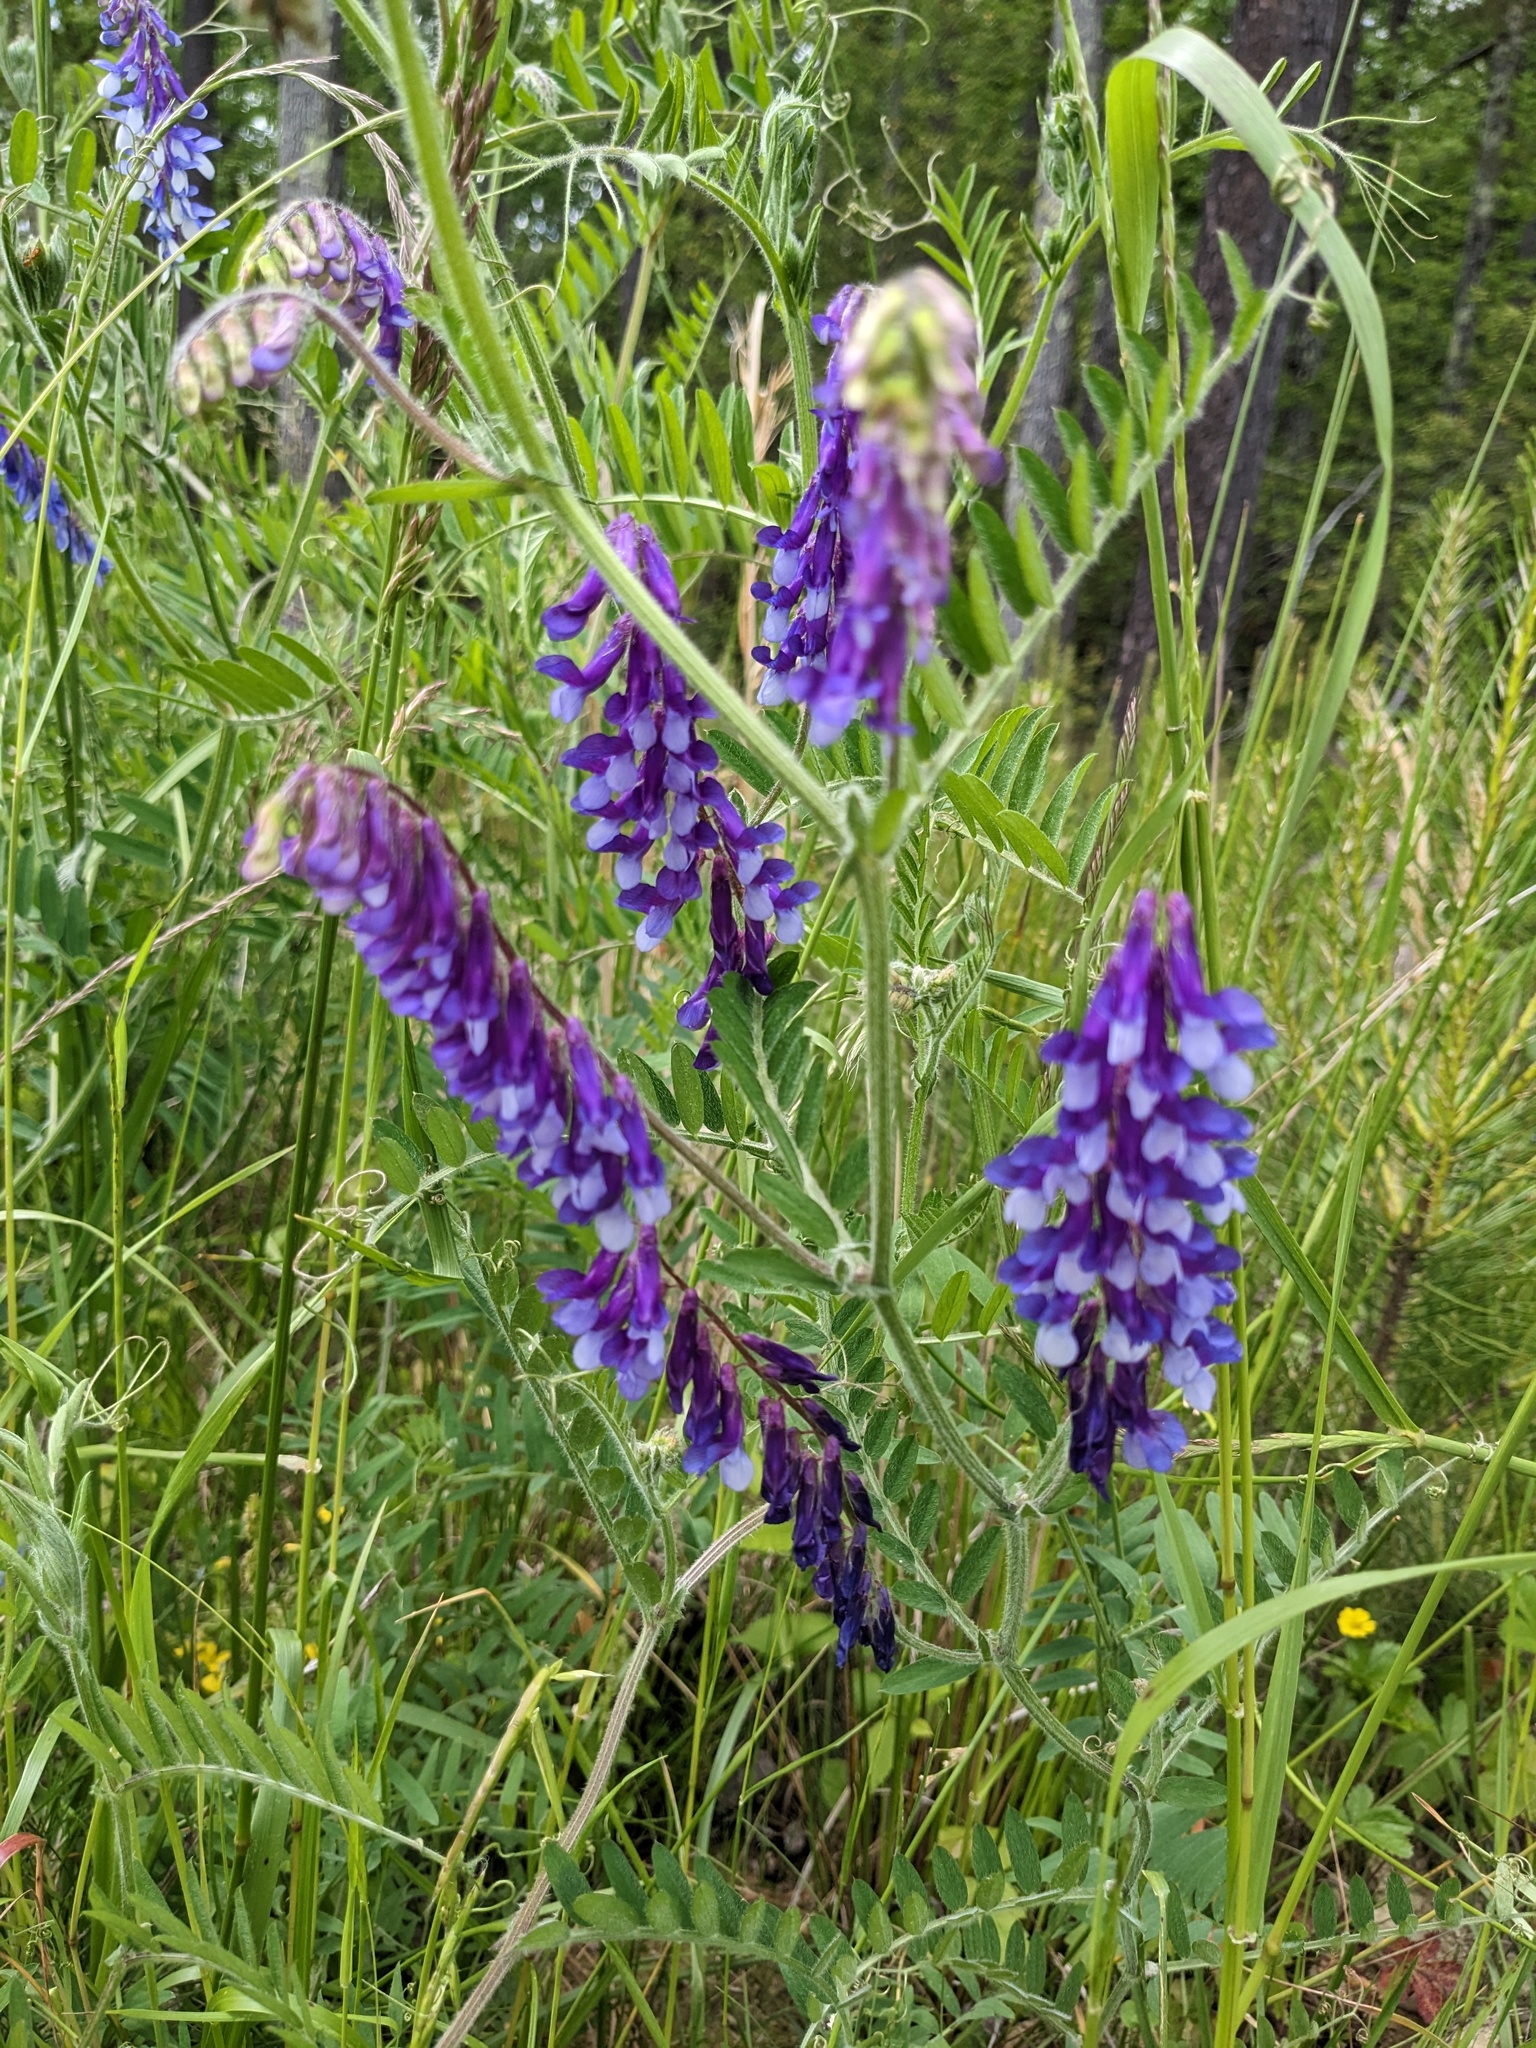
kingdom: Plantae
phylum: Tracheophyta
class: Magnoliopsida
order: Fabales
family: Fabaceae
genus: Vicia
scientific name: Vicia villosa
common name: Fodder vetch
